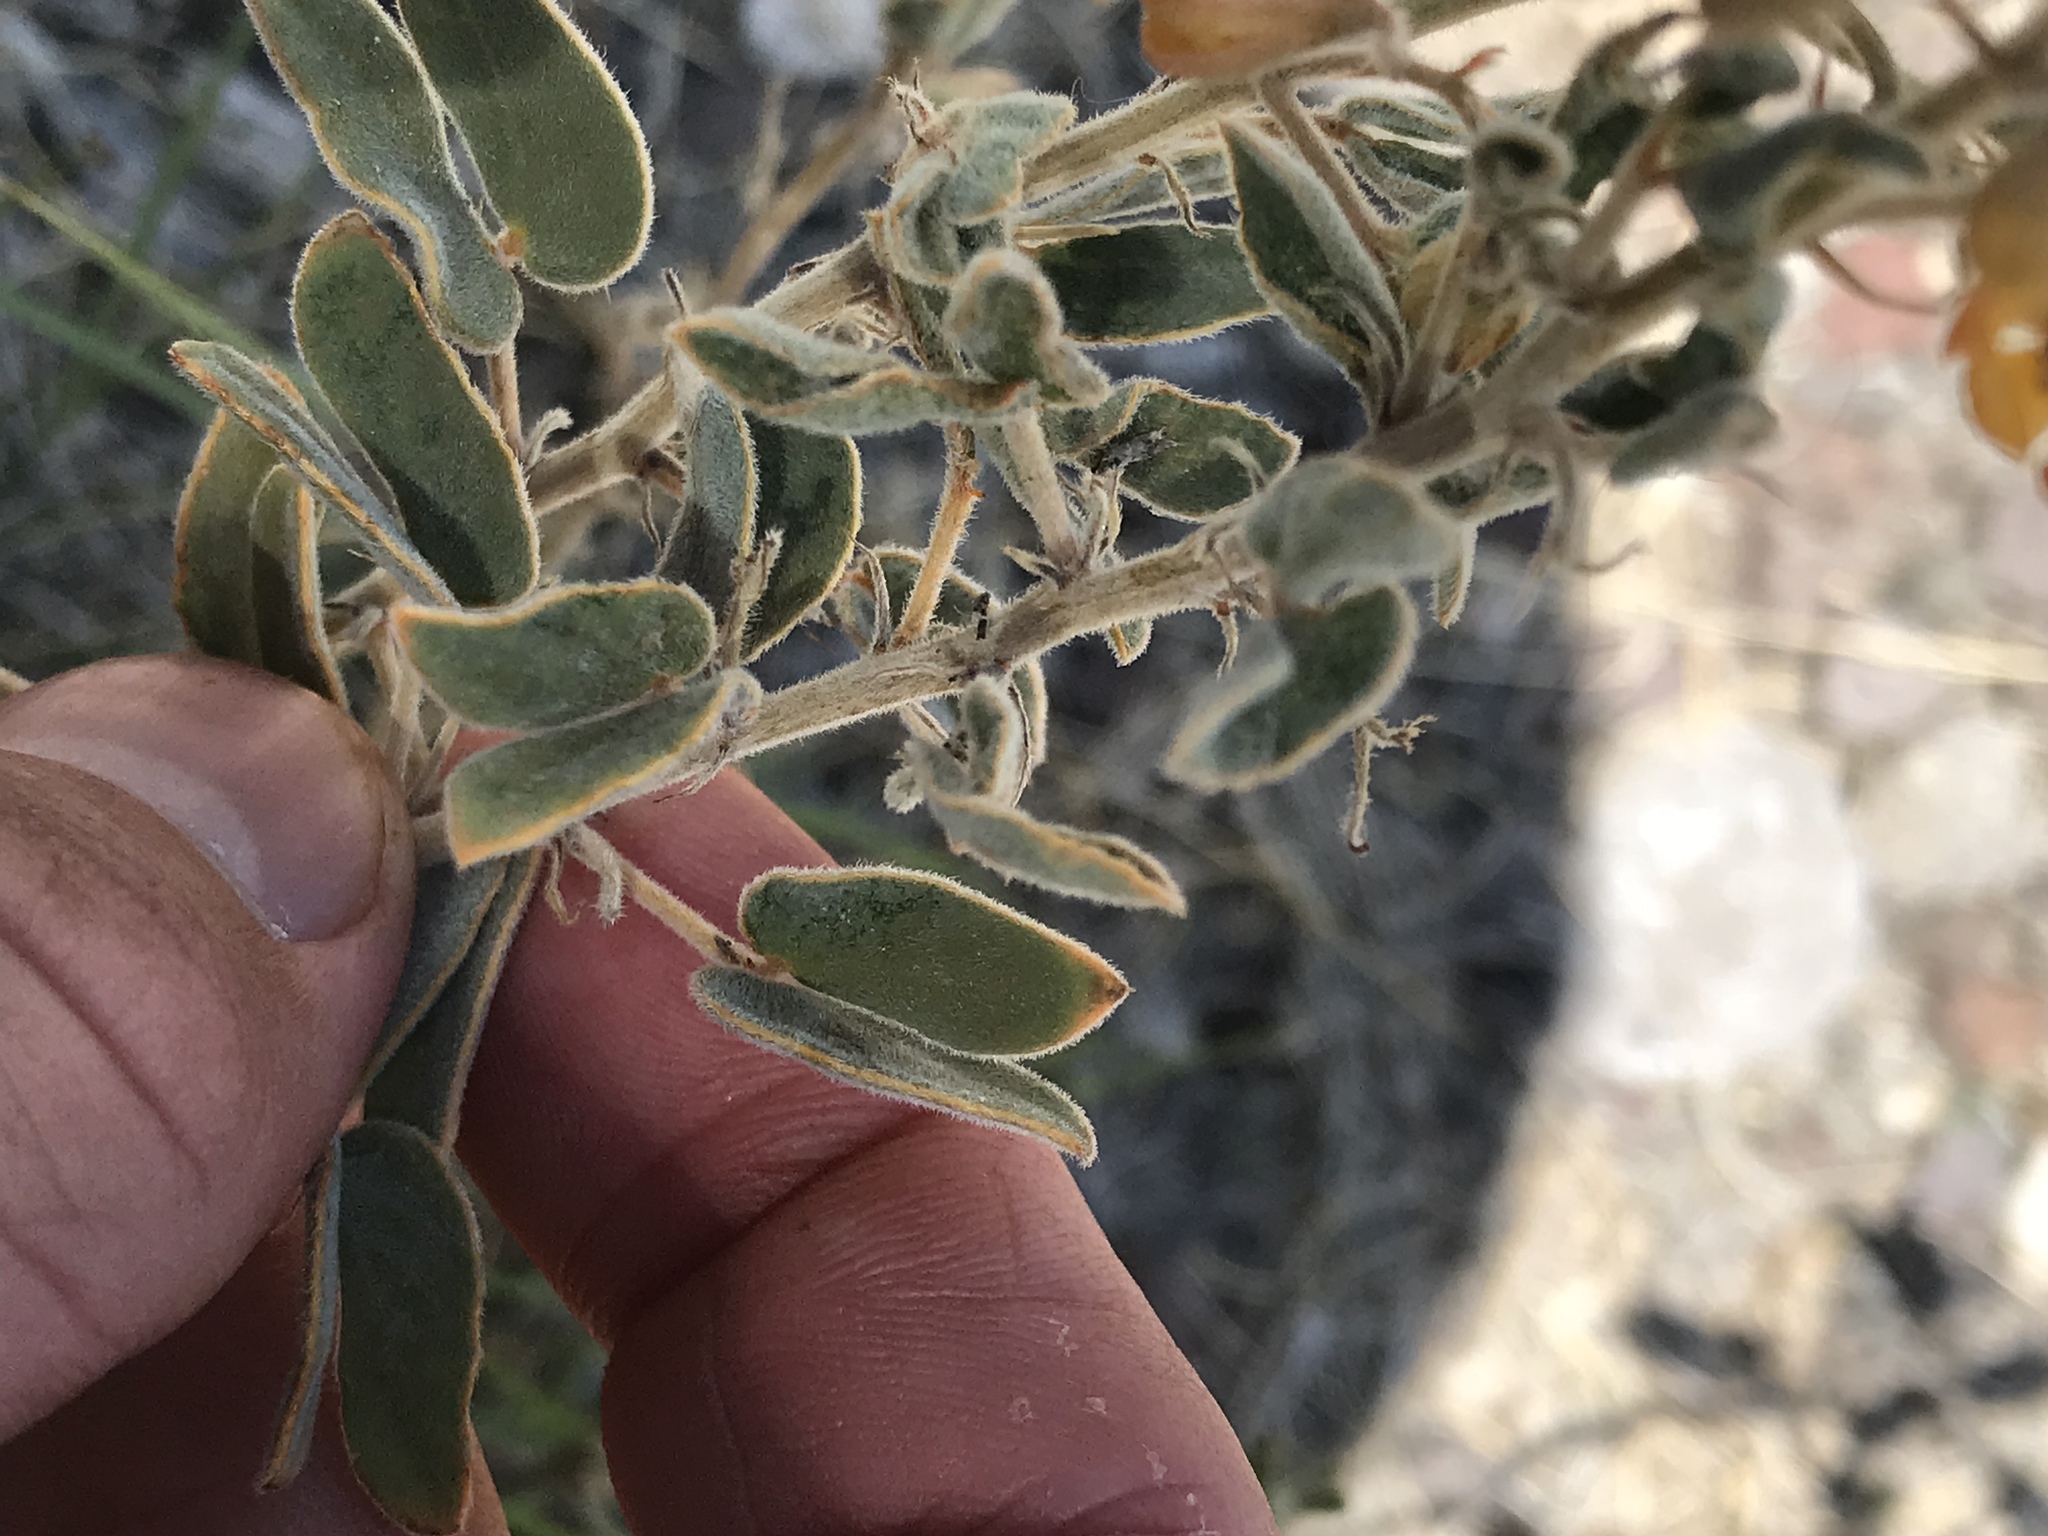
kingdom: Plantae
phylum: Tracheophyta
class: Magnoliopsida
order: Fabales
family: Fabaceae
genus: Senna
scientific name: Senna bauhinioides
